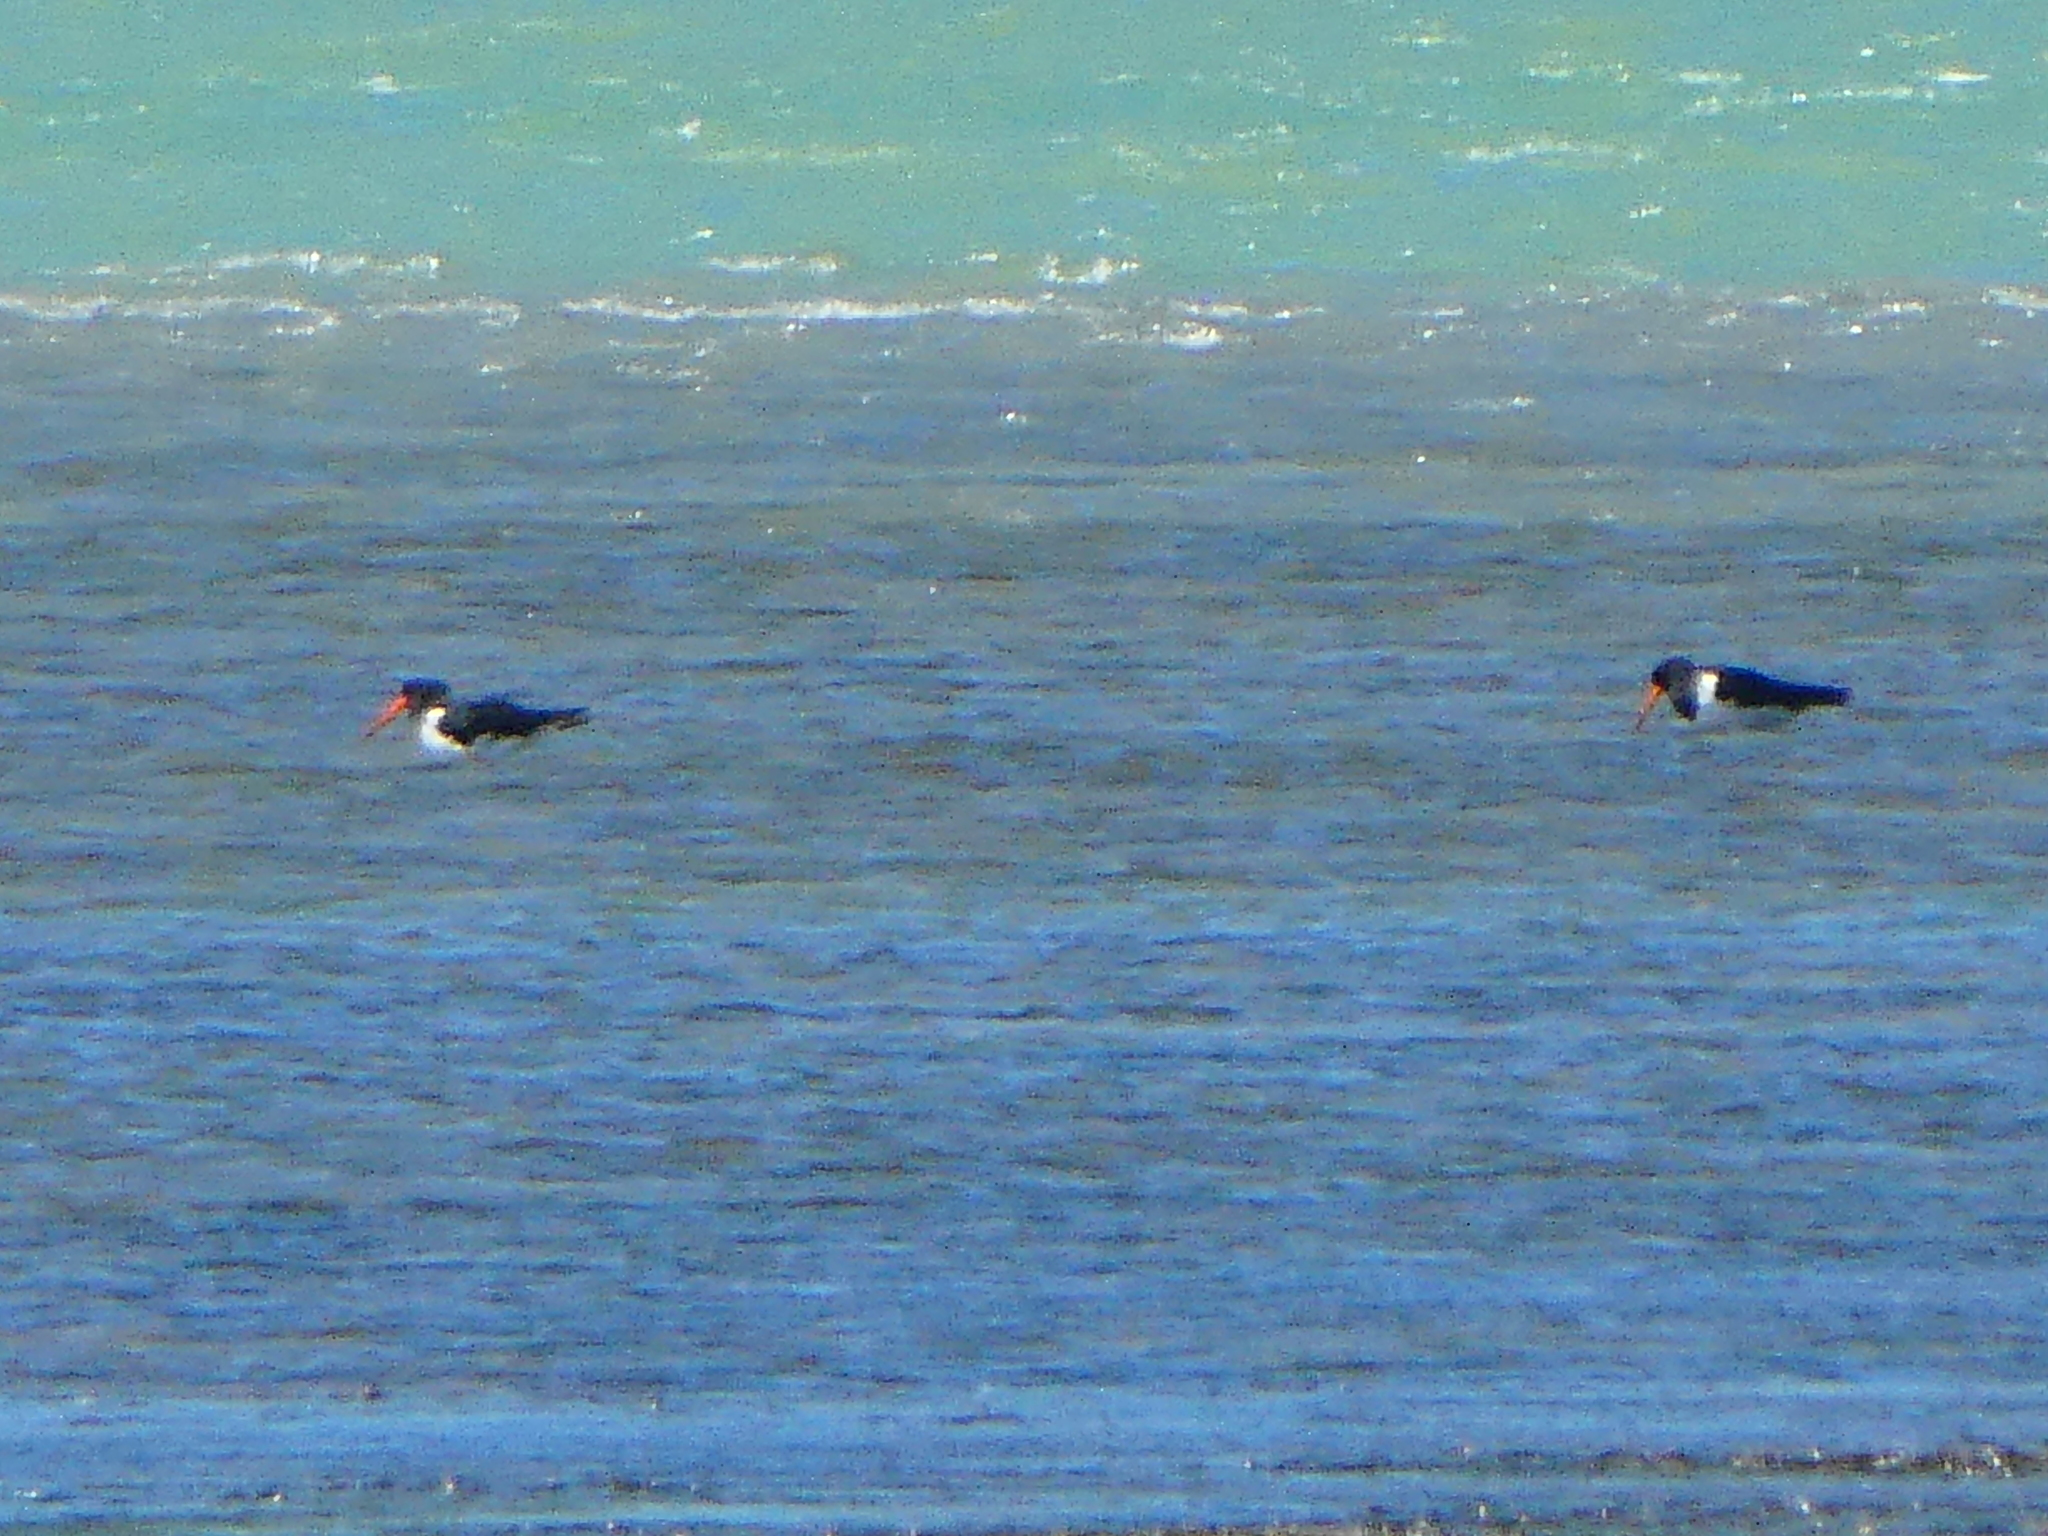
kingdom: Animalia
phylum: Chordata
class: Aves
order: Charadriiformes
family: Haematopodidae
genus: Haematopus
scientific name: Haematopus finschi
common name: South island oystercatcher
